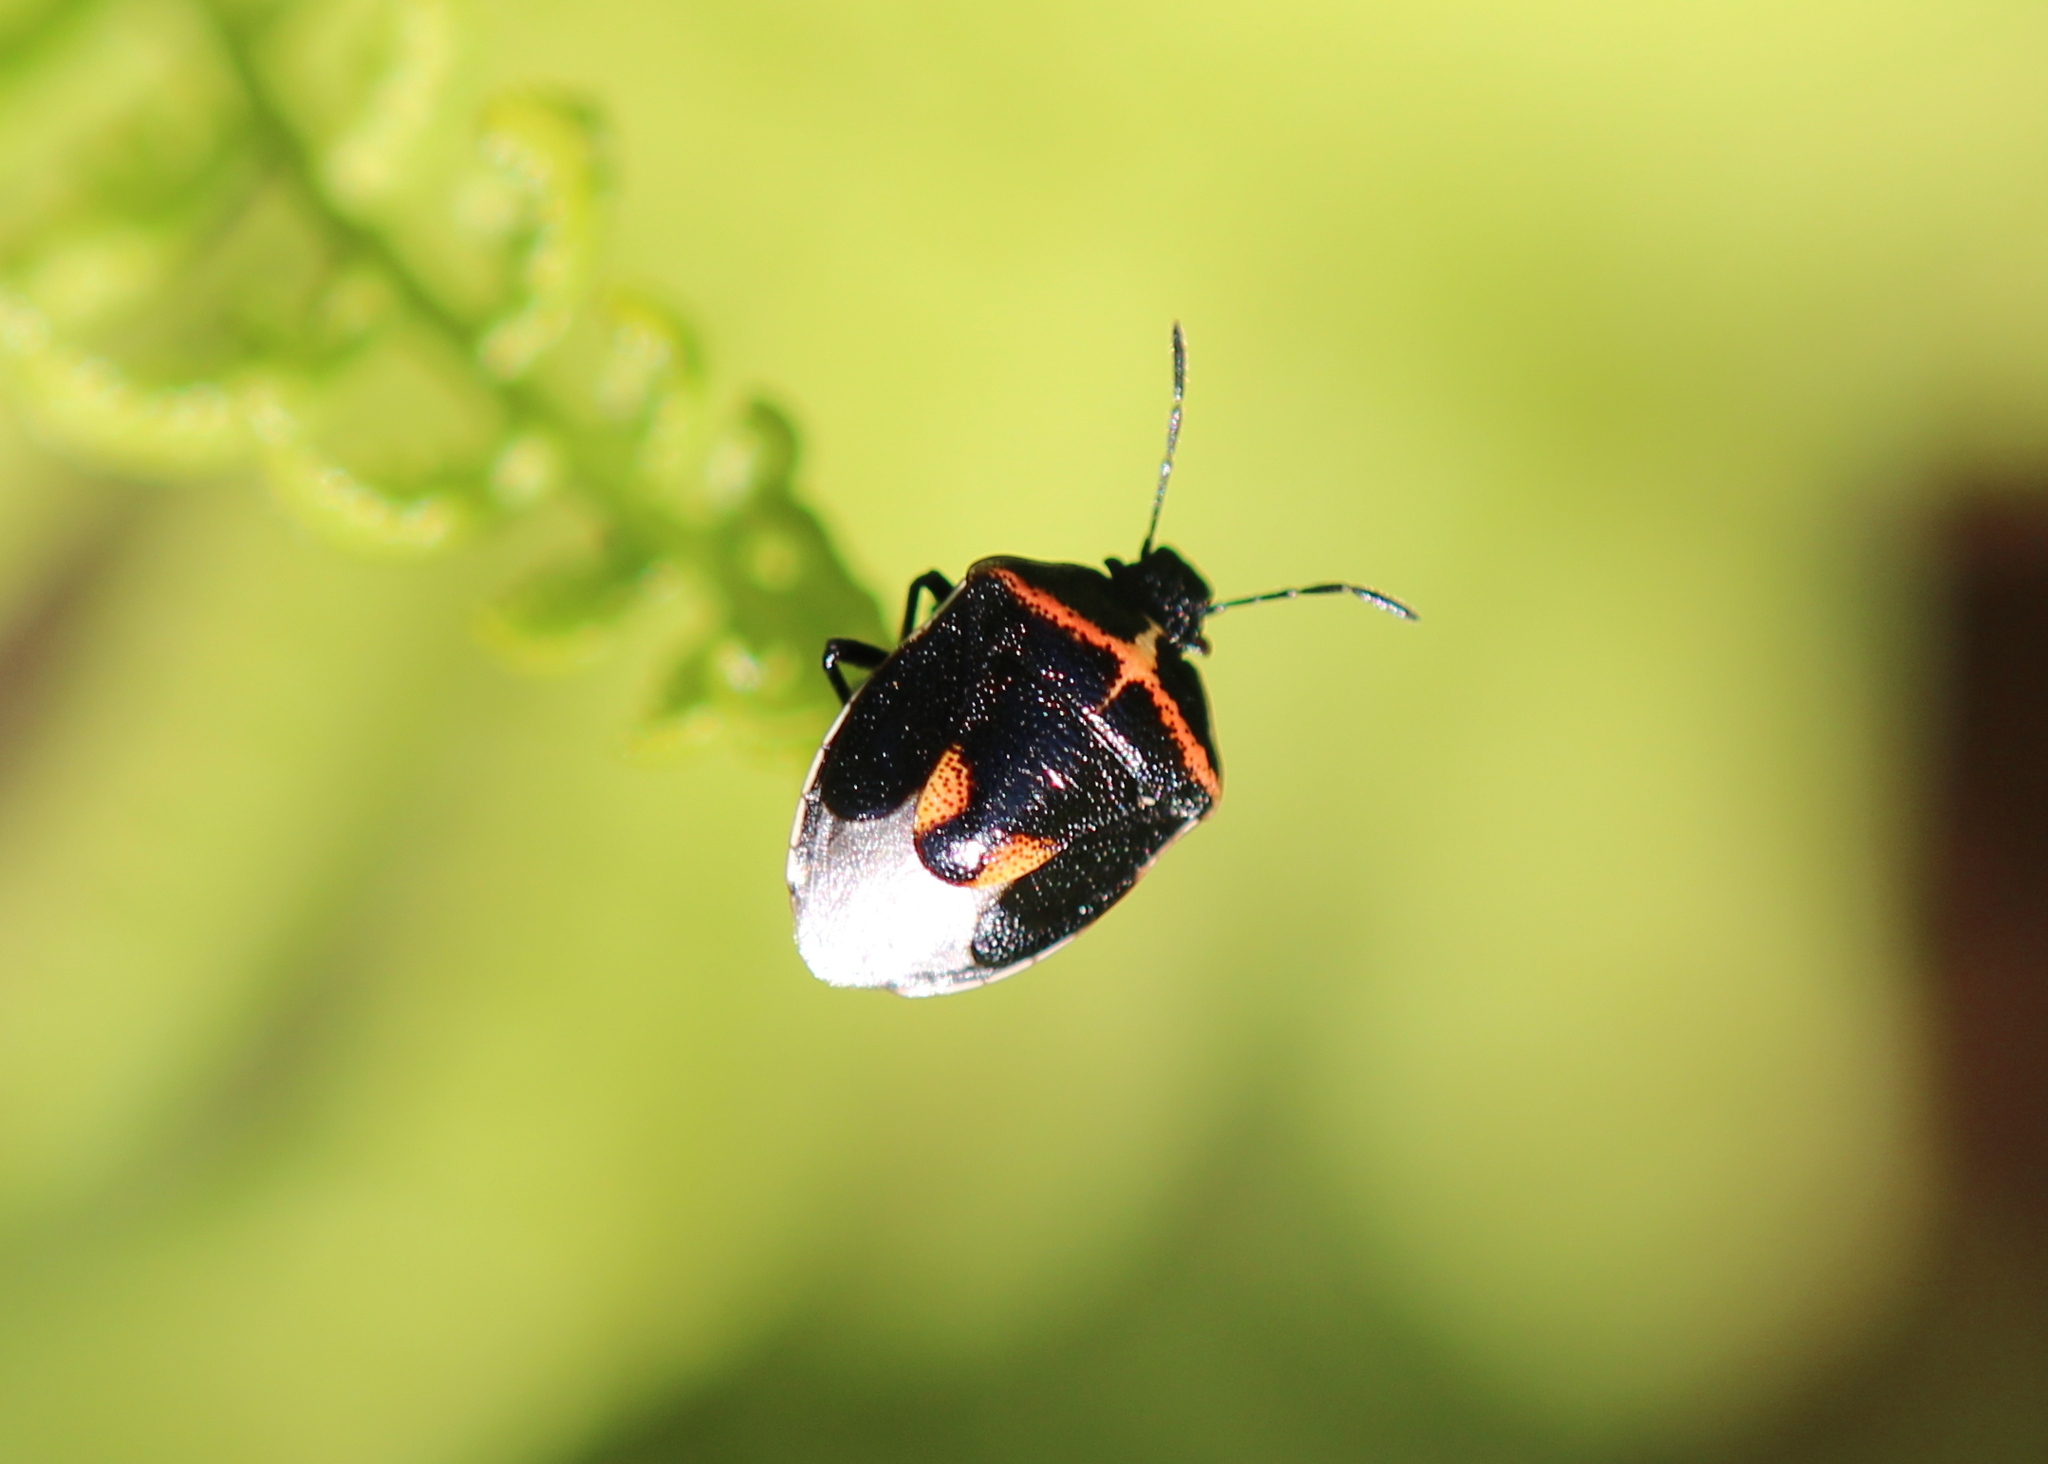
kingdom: Animalia
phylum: Arthropoda
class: Insecta
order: Hemiptera
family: Pentatomidae
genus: Cosmopepla
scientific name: Cosmopepla lintneriana
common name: Twice-stabbed stink bug
